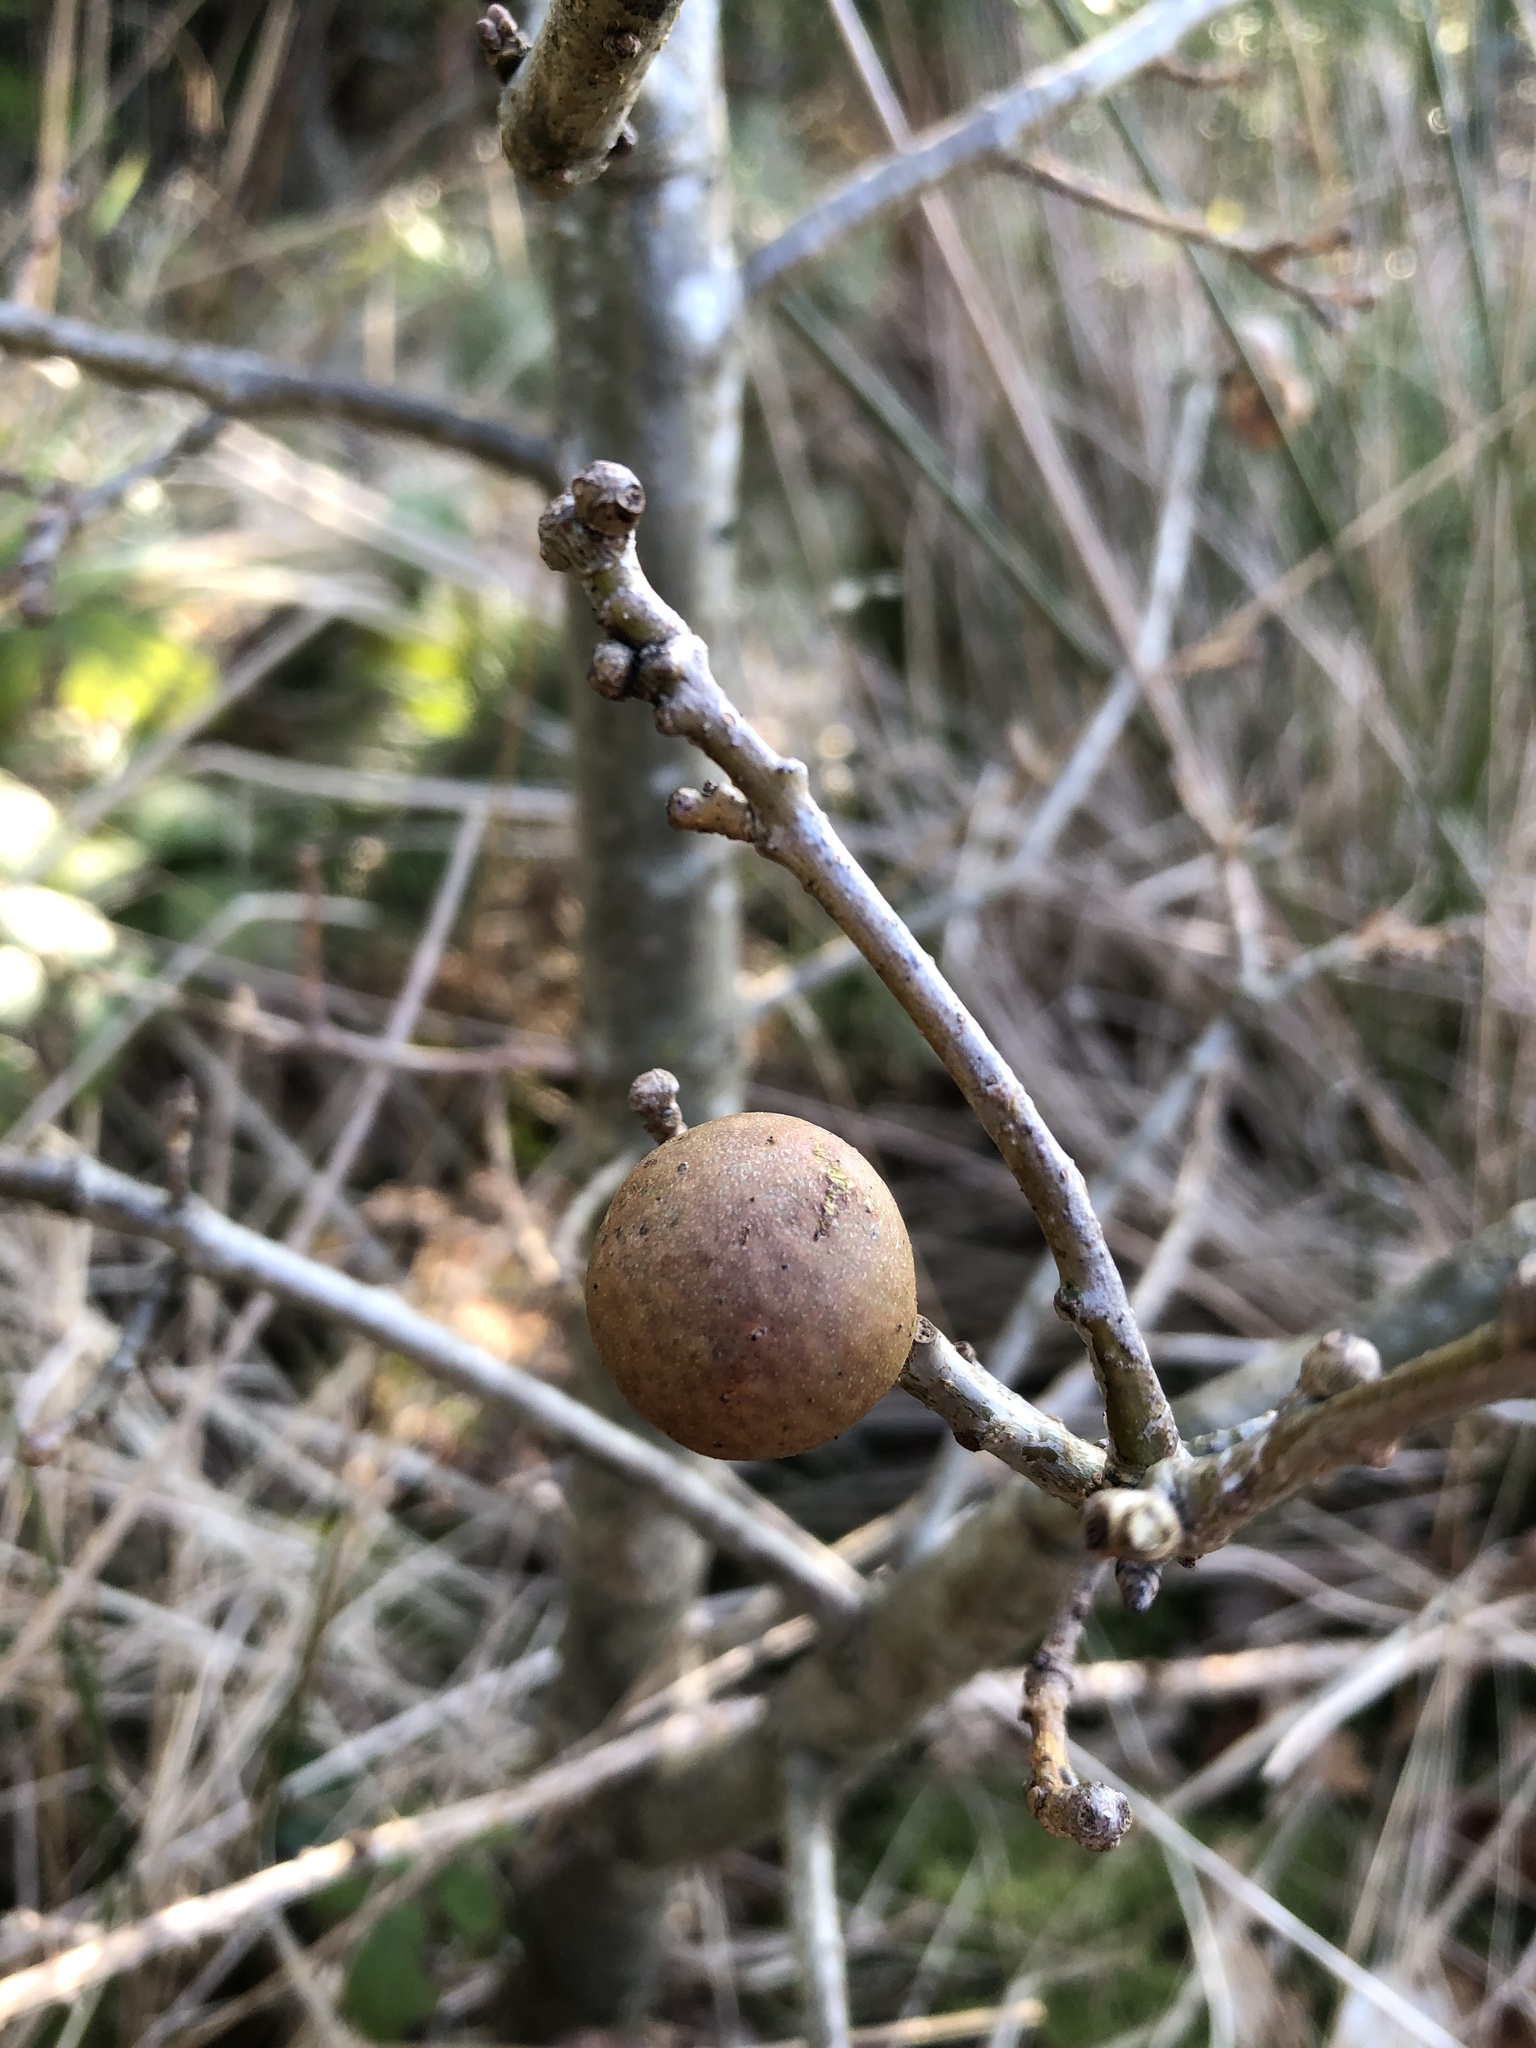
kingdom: Animalia
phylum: Arthropoda
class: Insecta
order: Hymenoptera
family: Cynipidae
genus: Andricus
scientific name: Andricus kollari
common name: Marble gall
